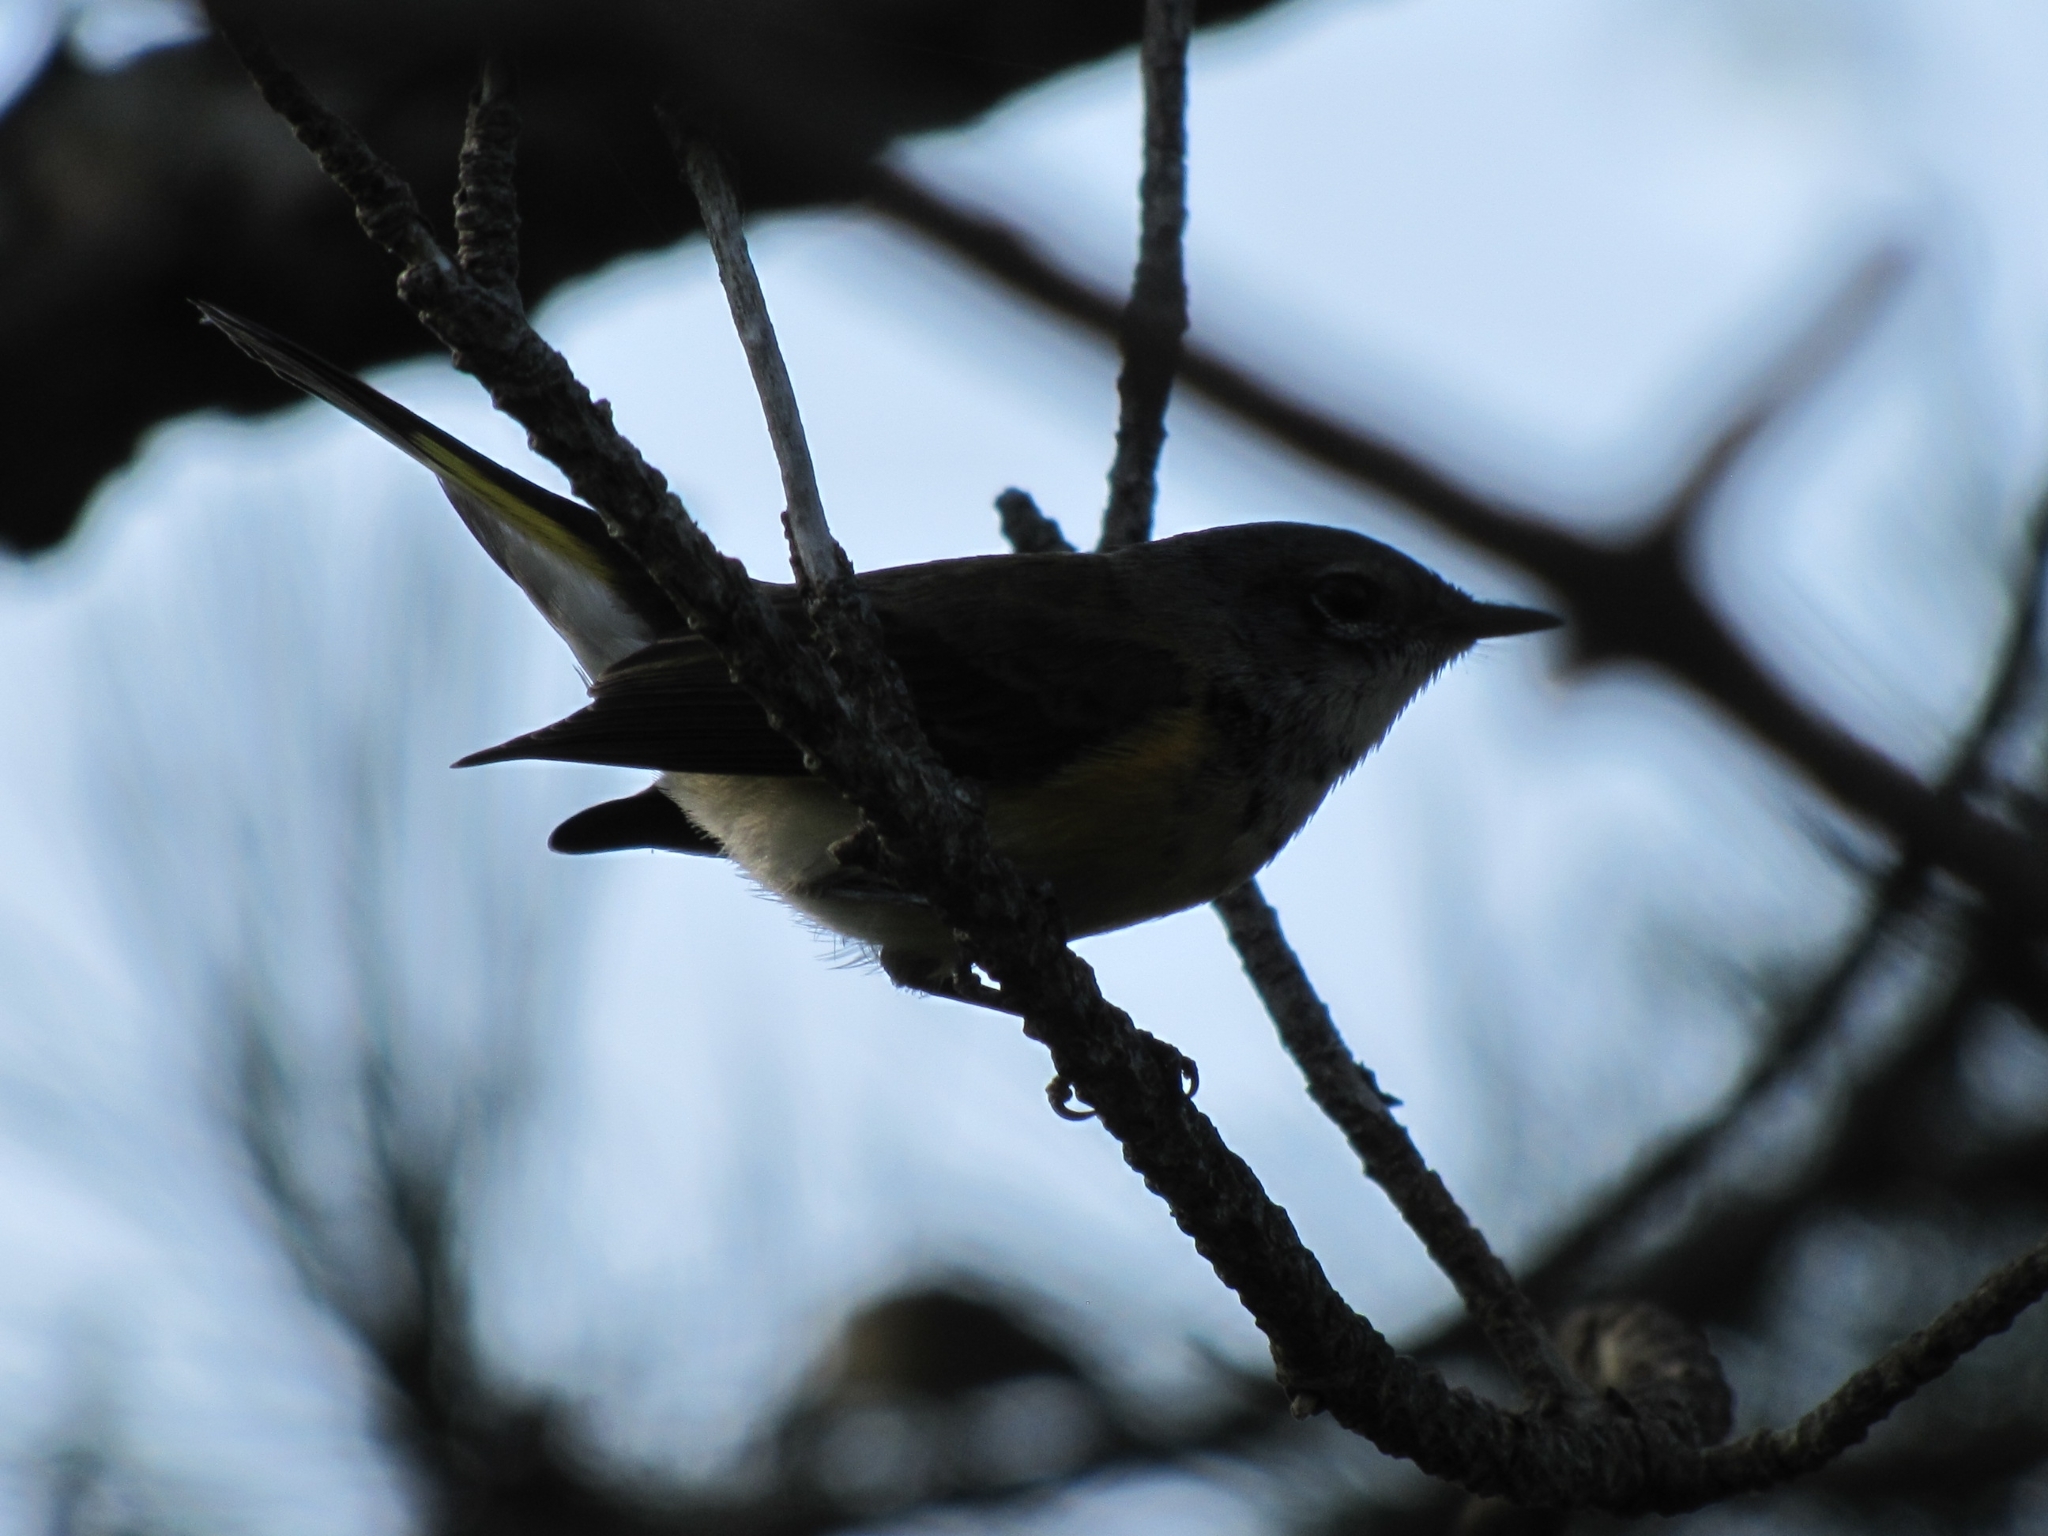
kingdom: Animalia
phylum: Chordata
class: Aves
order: Passeriformes
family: Parulidae
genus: Setophaga
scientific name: Setophaga ruticilla
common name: American redstart
